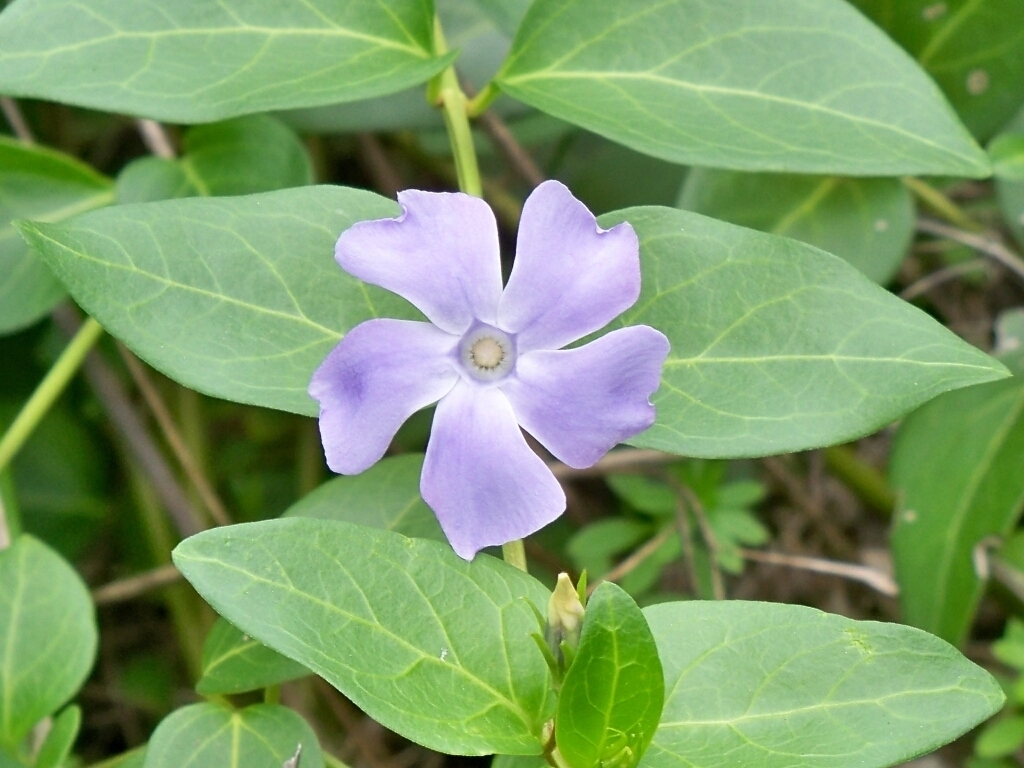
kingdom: Plantae
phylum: Tracheophyta
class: Magnoliopsida
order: Gentianales
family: Apocynaceae
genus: Vinca
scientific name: Vinca difformis
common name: Intermediate periwinkle
